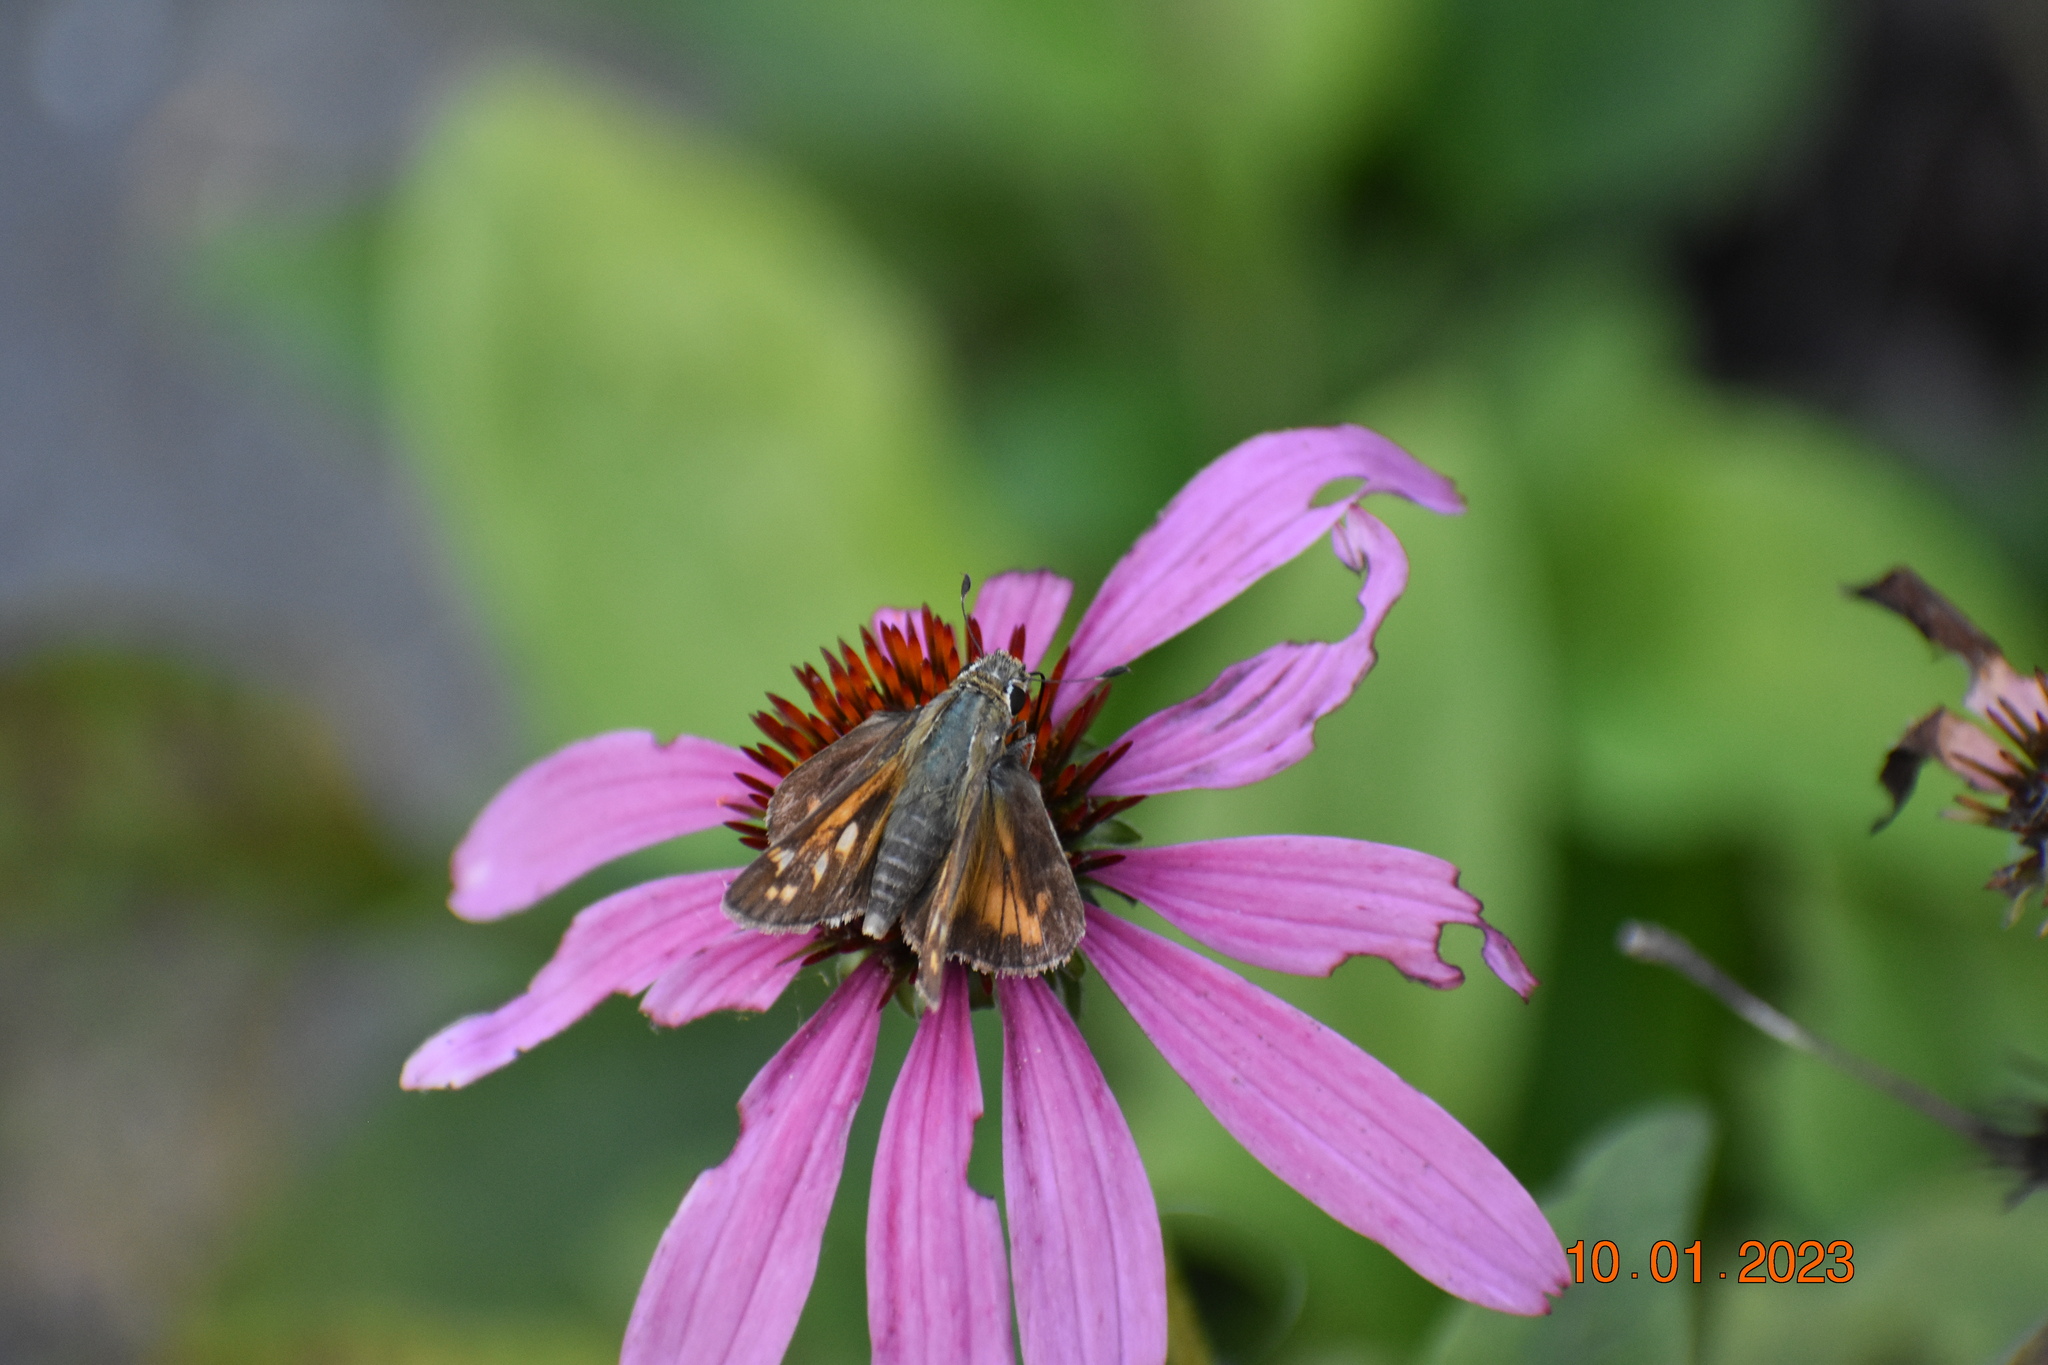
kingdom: Animalia
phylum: Arthropoda
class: Insecta
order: Lepidoptera
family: Hesperiidae
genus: Atalopedes
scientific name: Atalopedes
